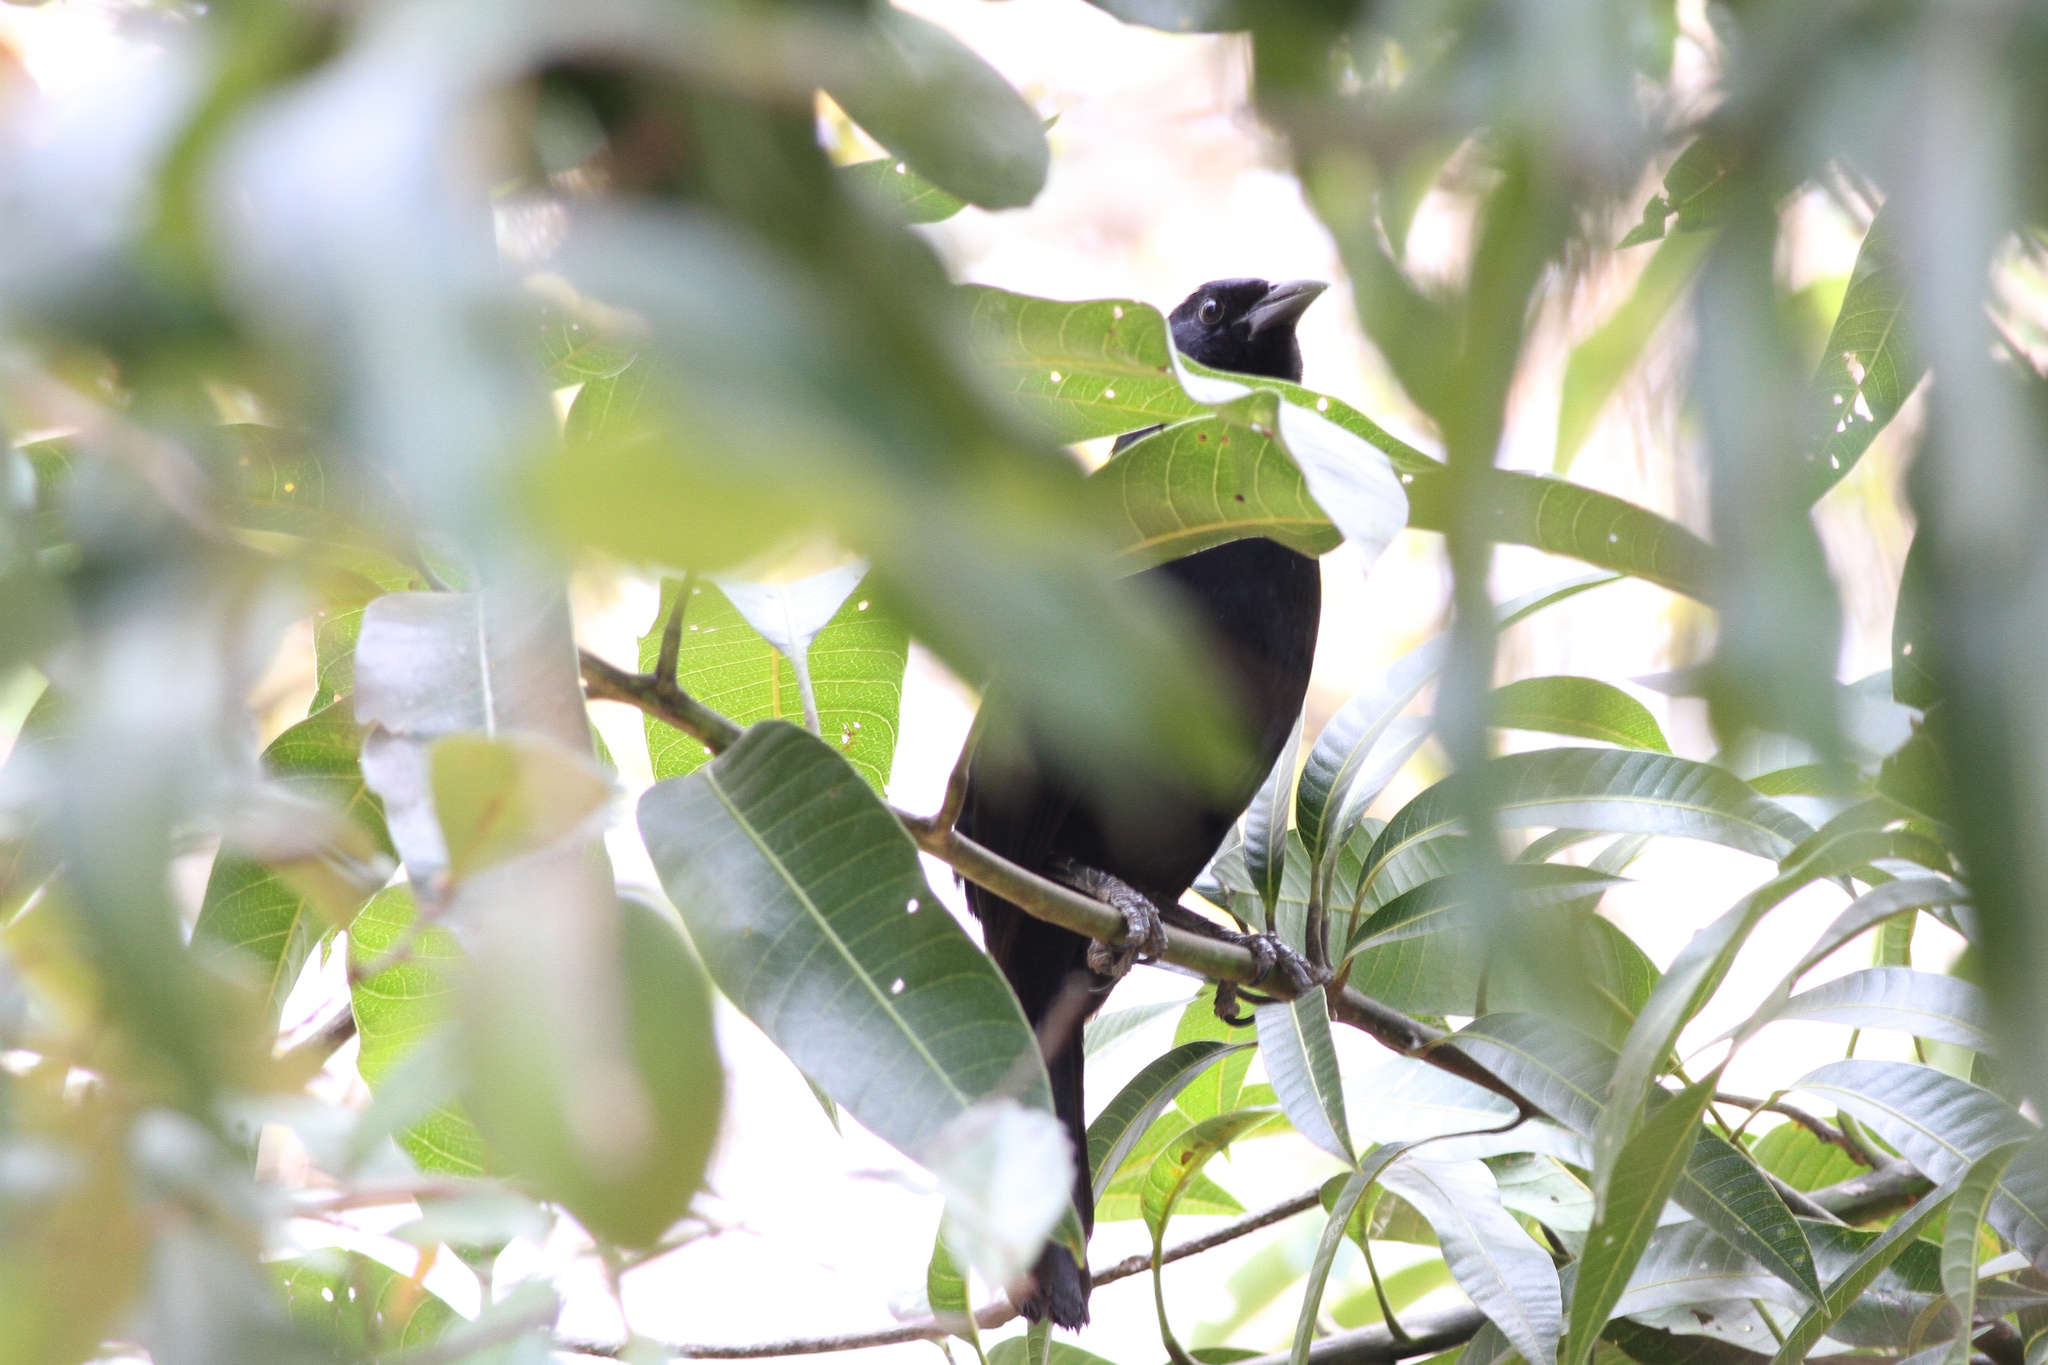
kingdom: Animalia
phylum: Chordata
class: Aves
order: Passeriformes
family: Icteridae
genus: Dives
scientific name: Dives dives
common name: Melodious blackbird
